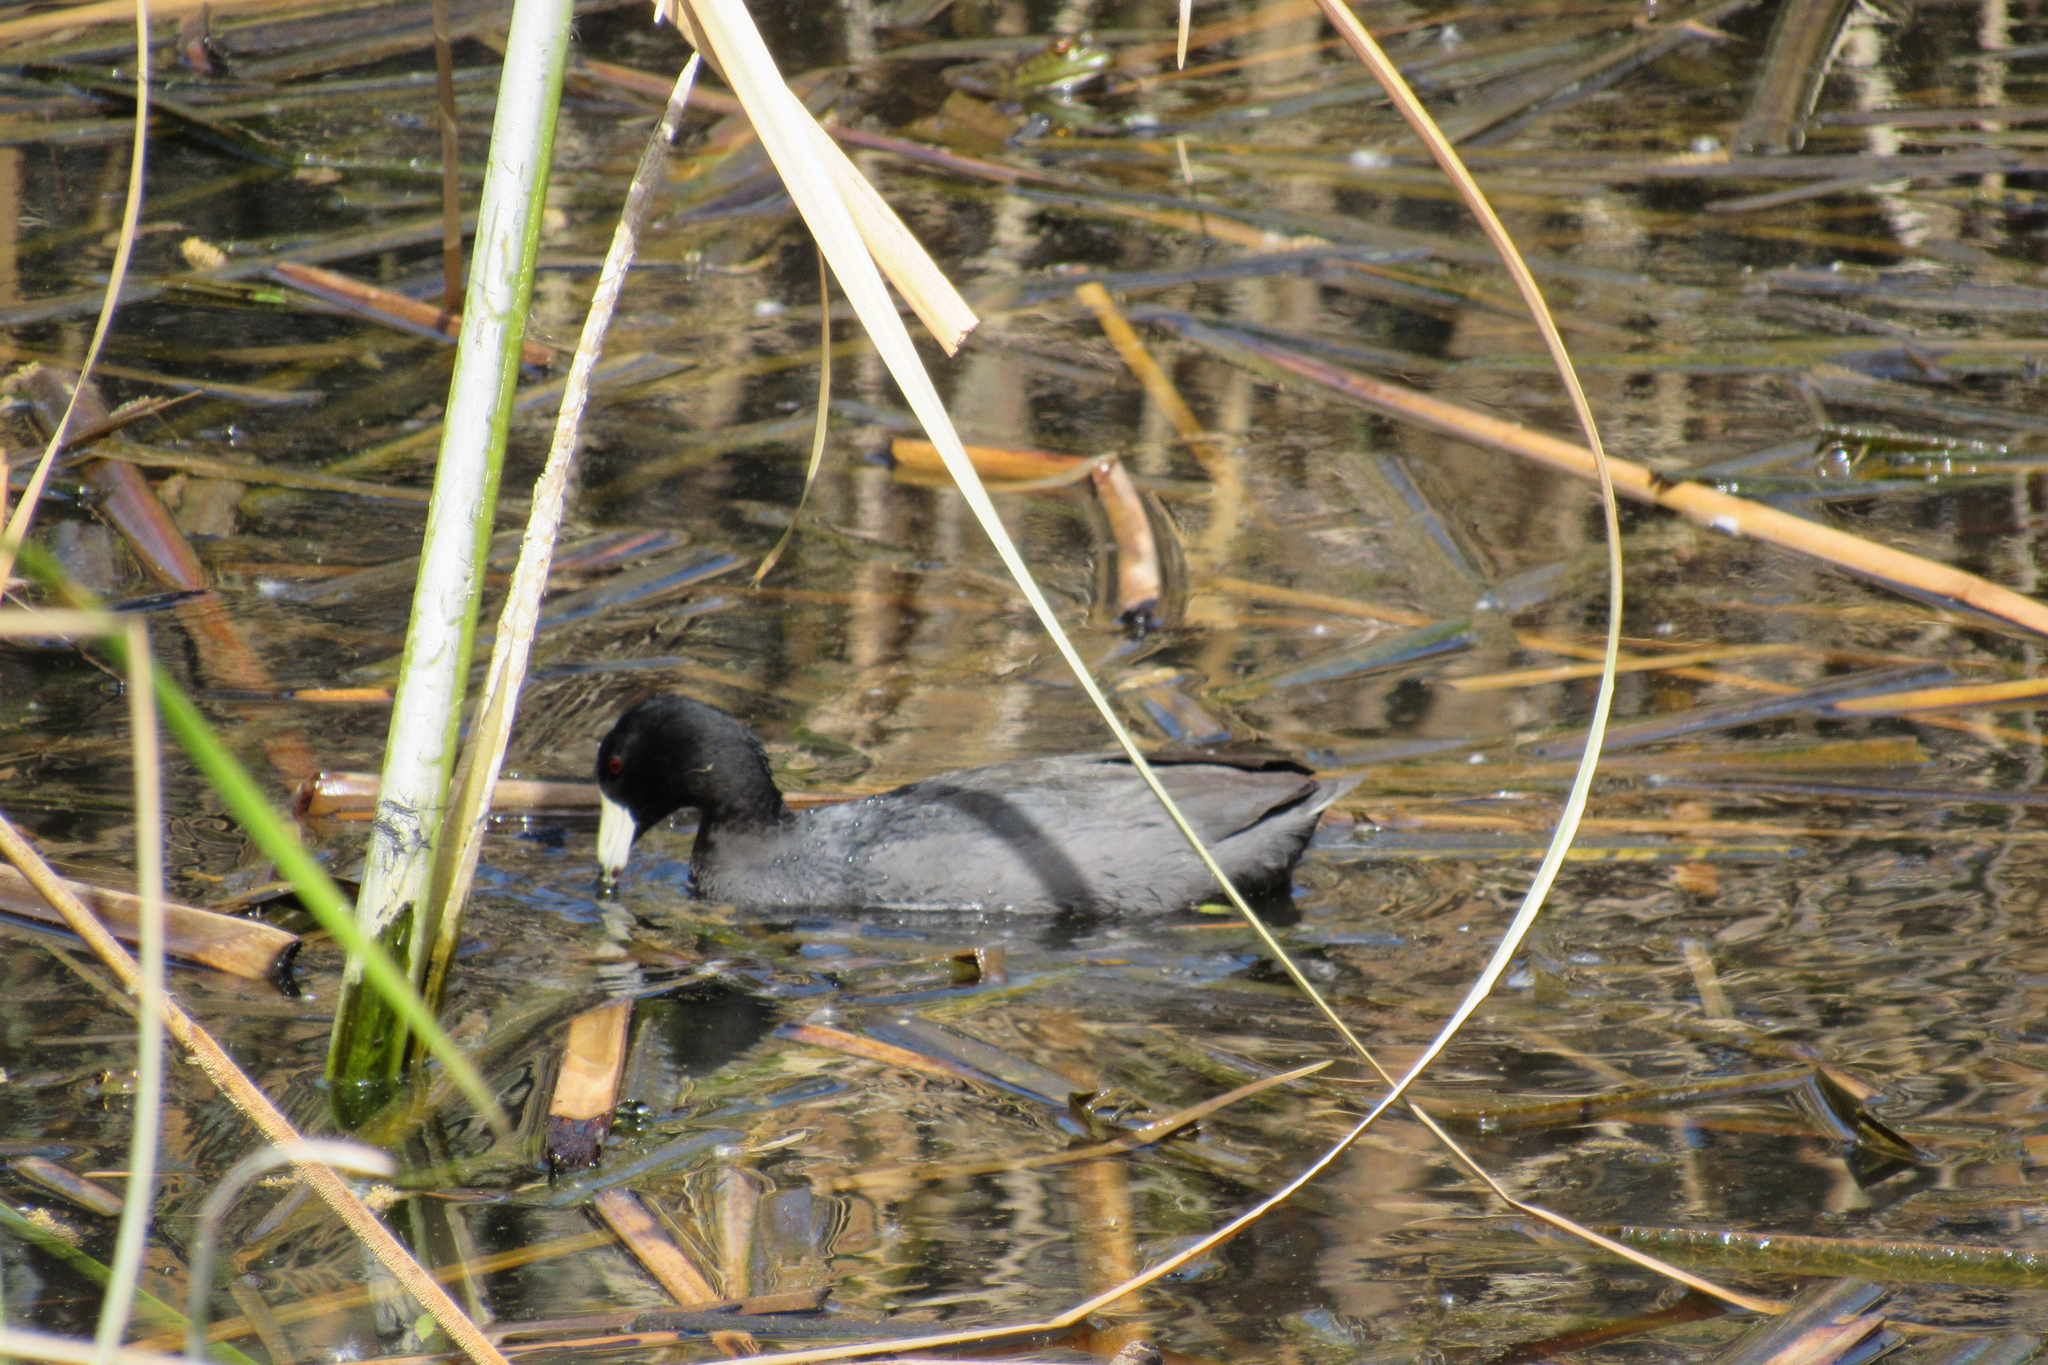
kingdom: Animalia
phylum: Chordata
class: Aves
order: Gruiformes
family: Rallidae
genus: Fulica
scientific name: Fulica americana
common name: American coot
